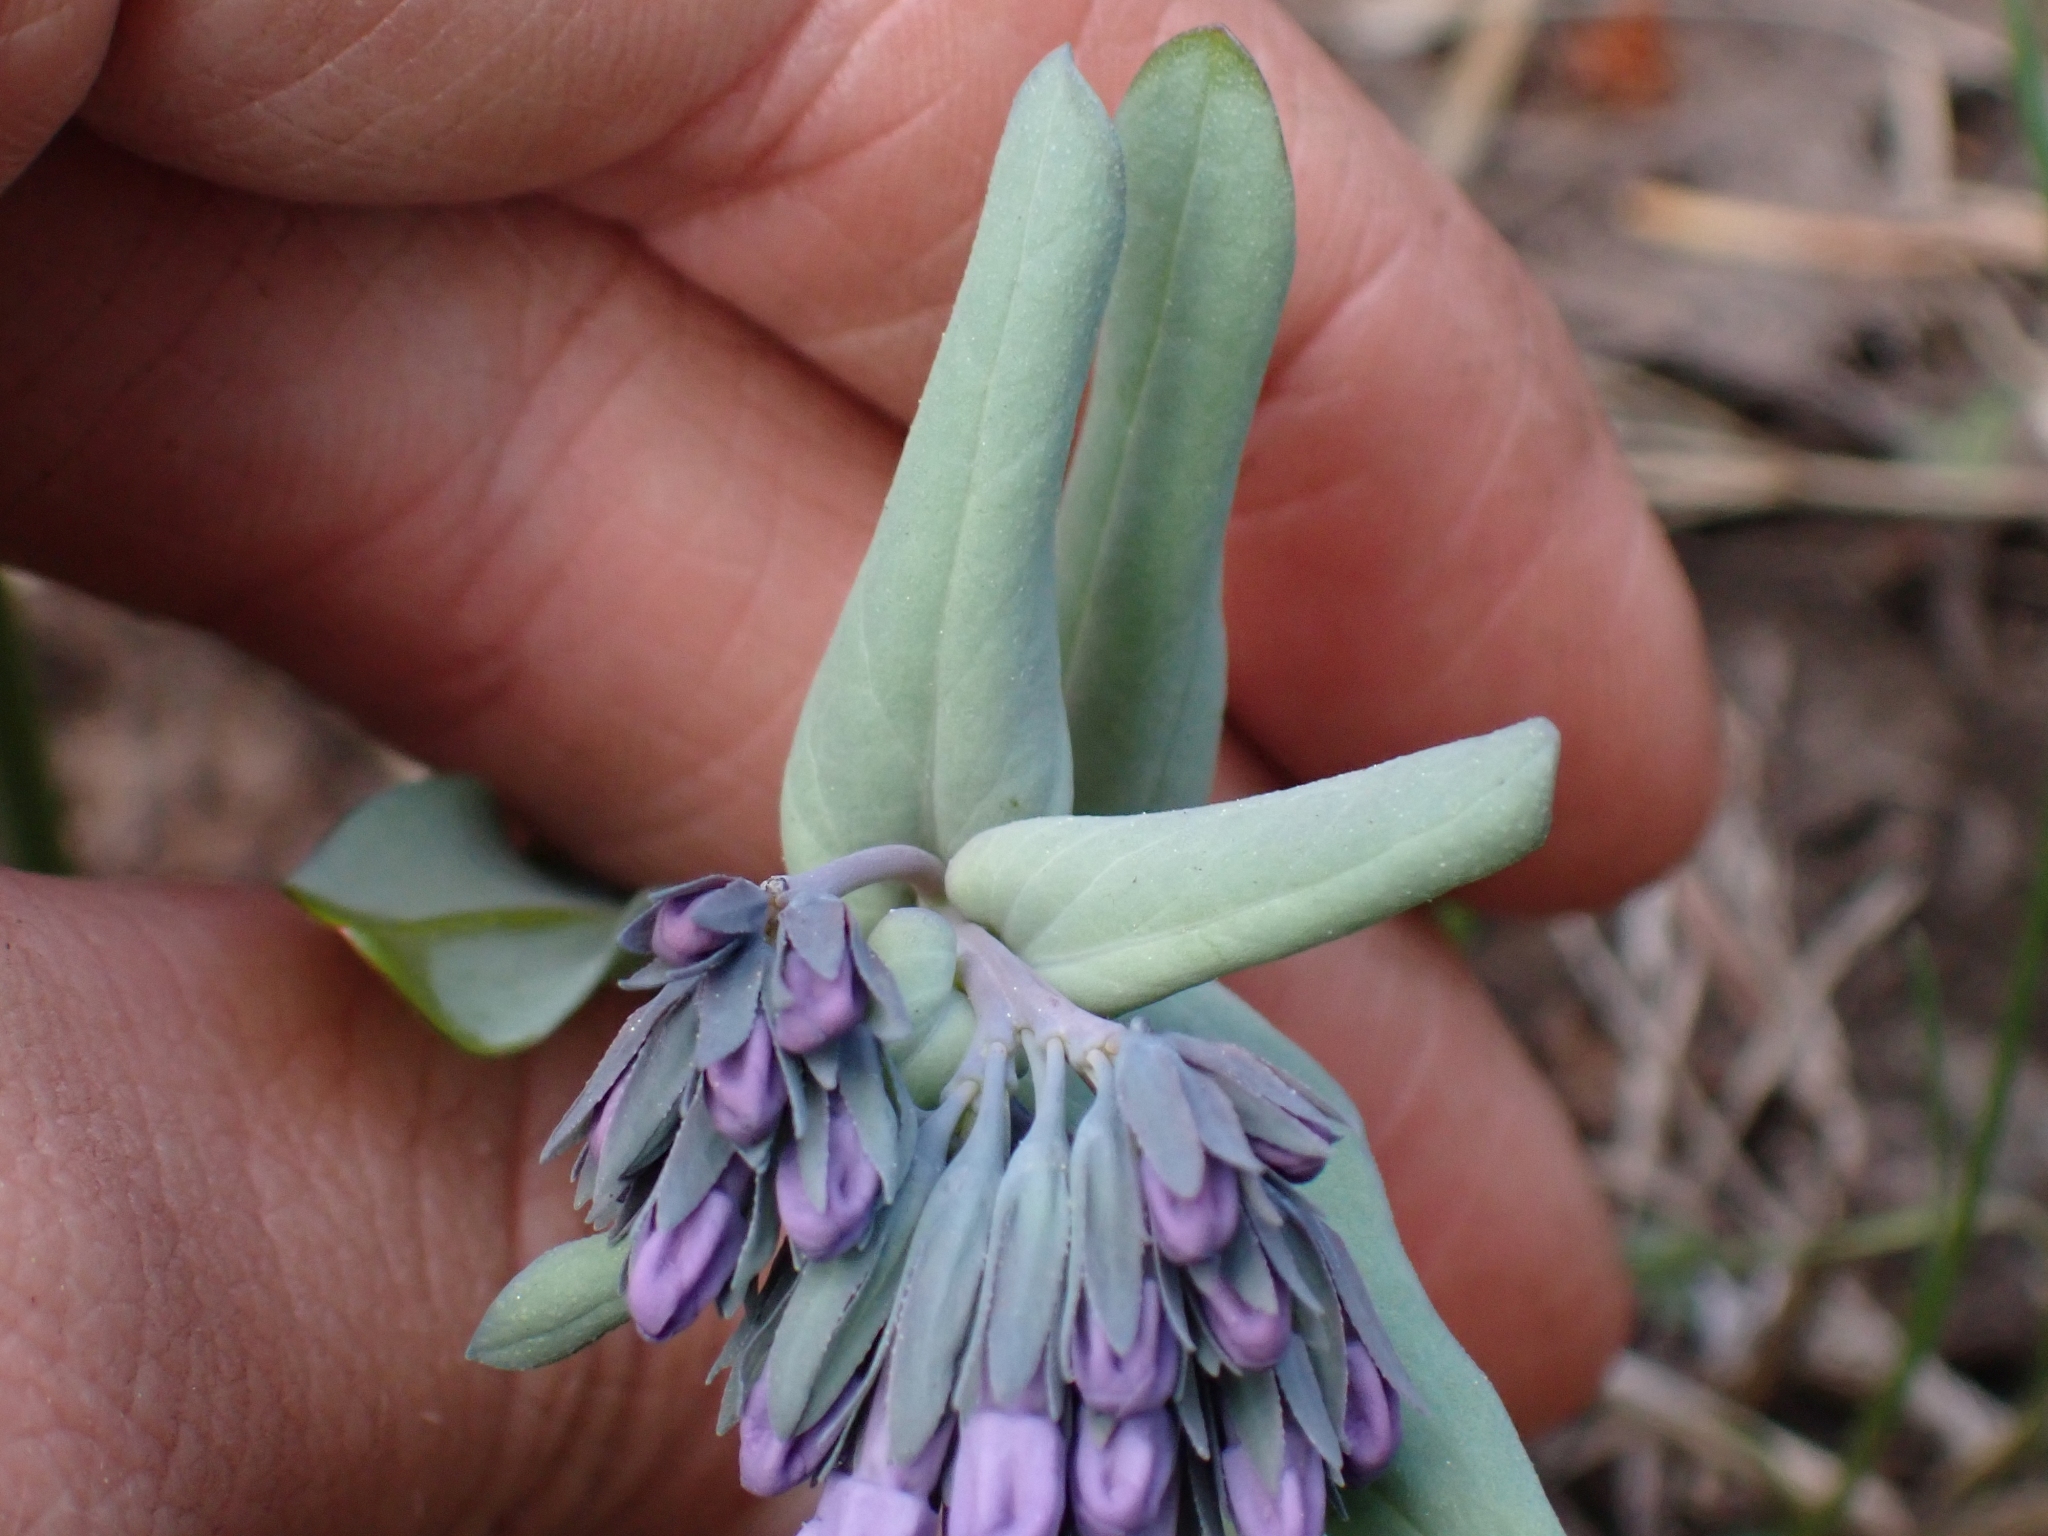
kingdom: Plantae
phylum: Tracheophyta
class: Magnoliopsida
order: Boraginales
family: Boraginaceae
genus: Mertensia
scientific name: Mertensia longiflora
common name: Large-flowered bluebells
